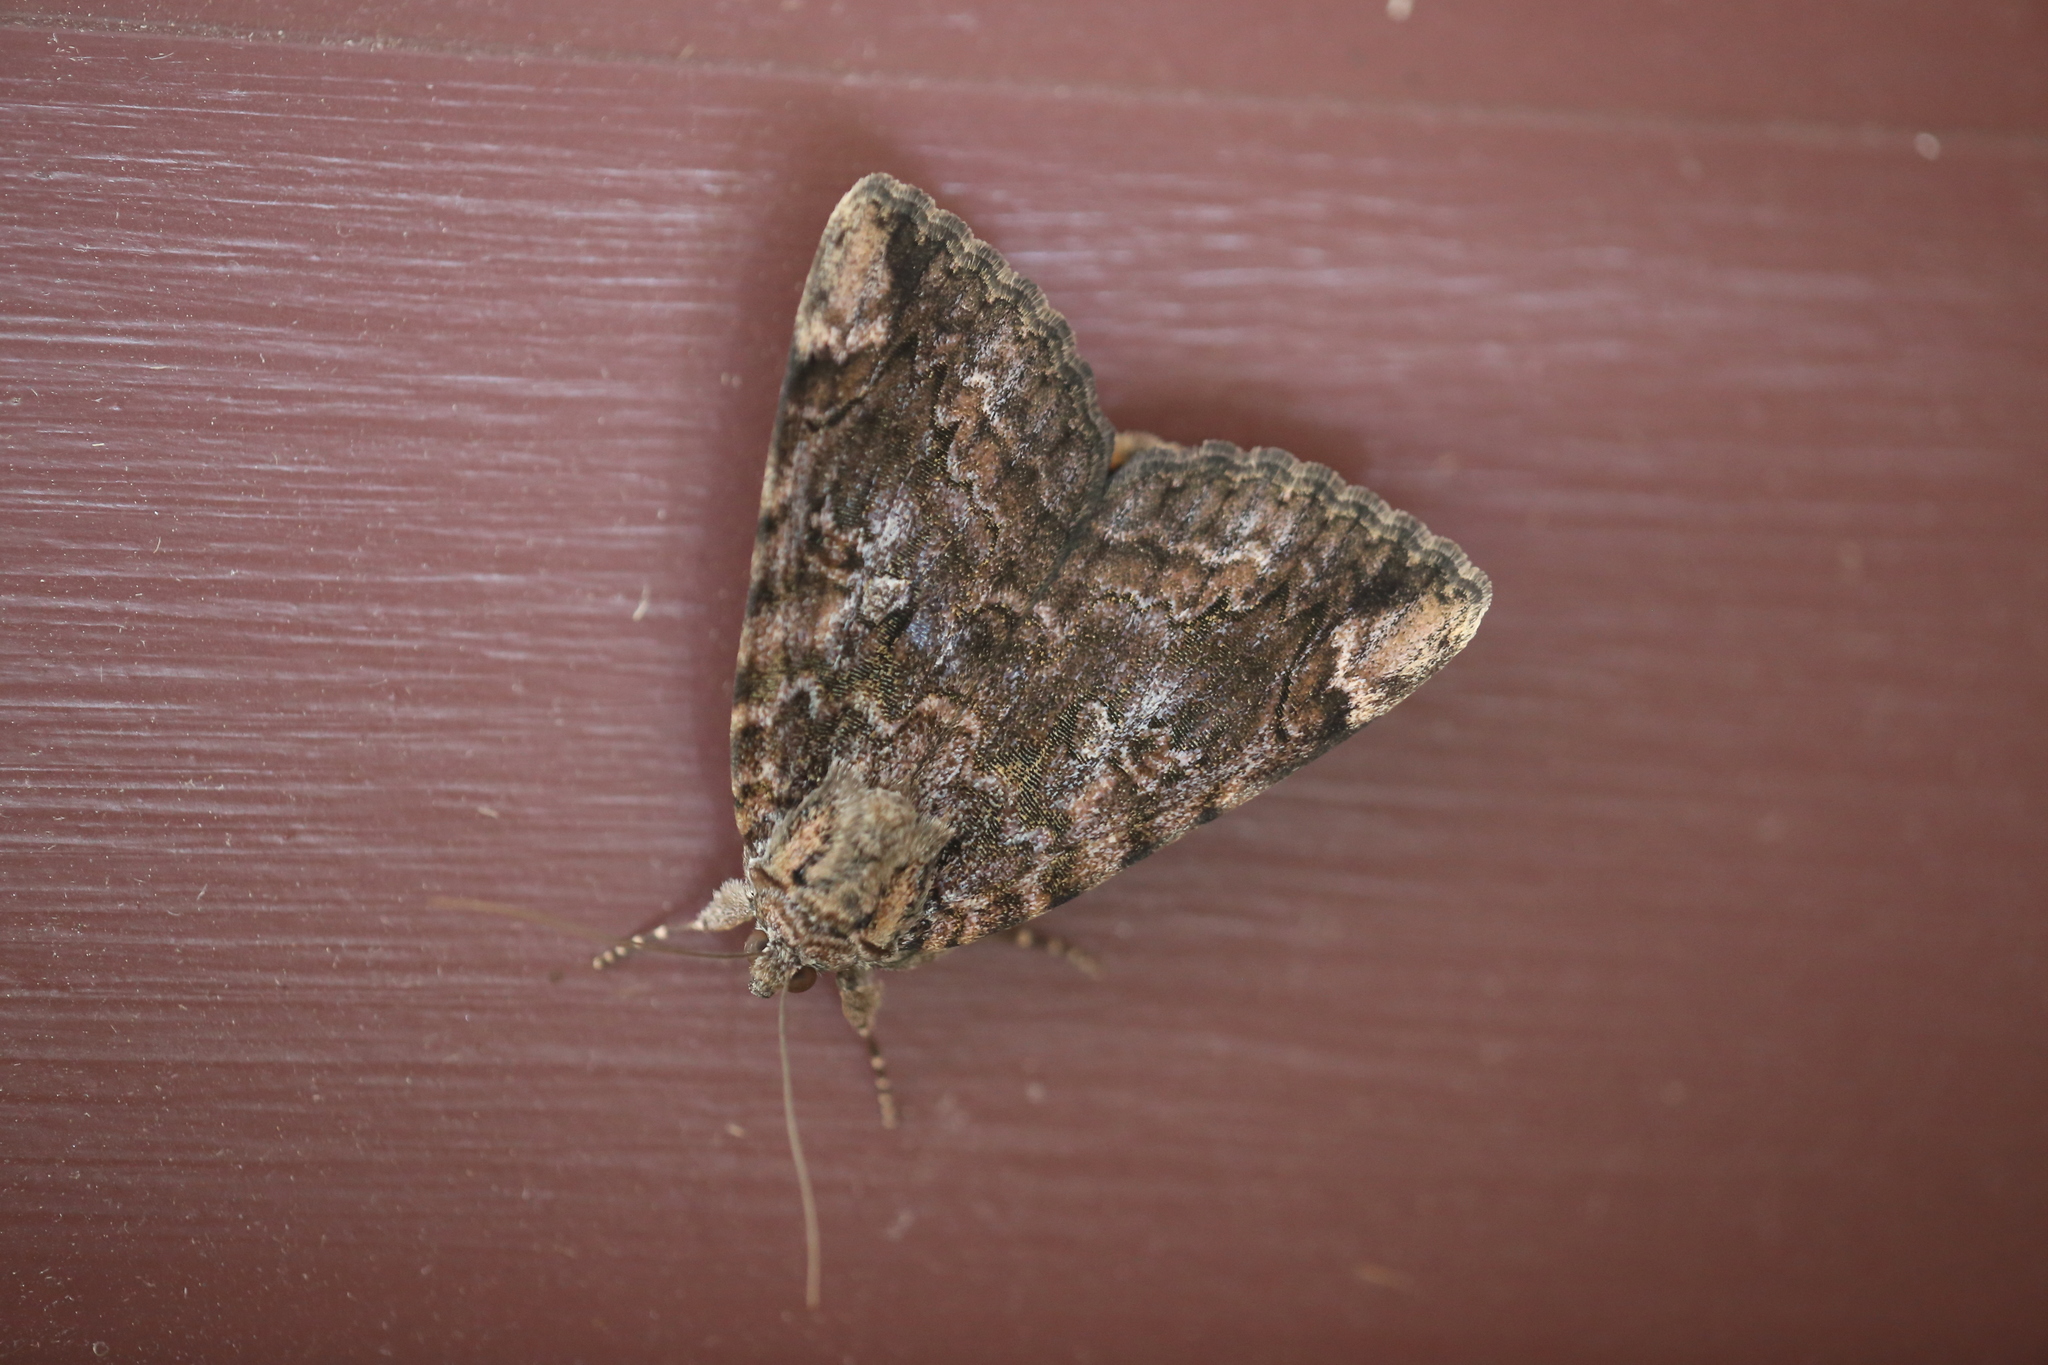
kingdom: Animalia
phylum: Arthropoda
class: Insecta
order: Lepidoptera
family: Erebidae
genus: Catocala
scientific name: Catocala innubens
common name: Betrothed underwing
